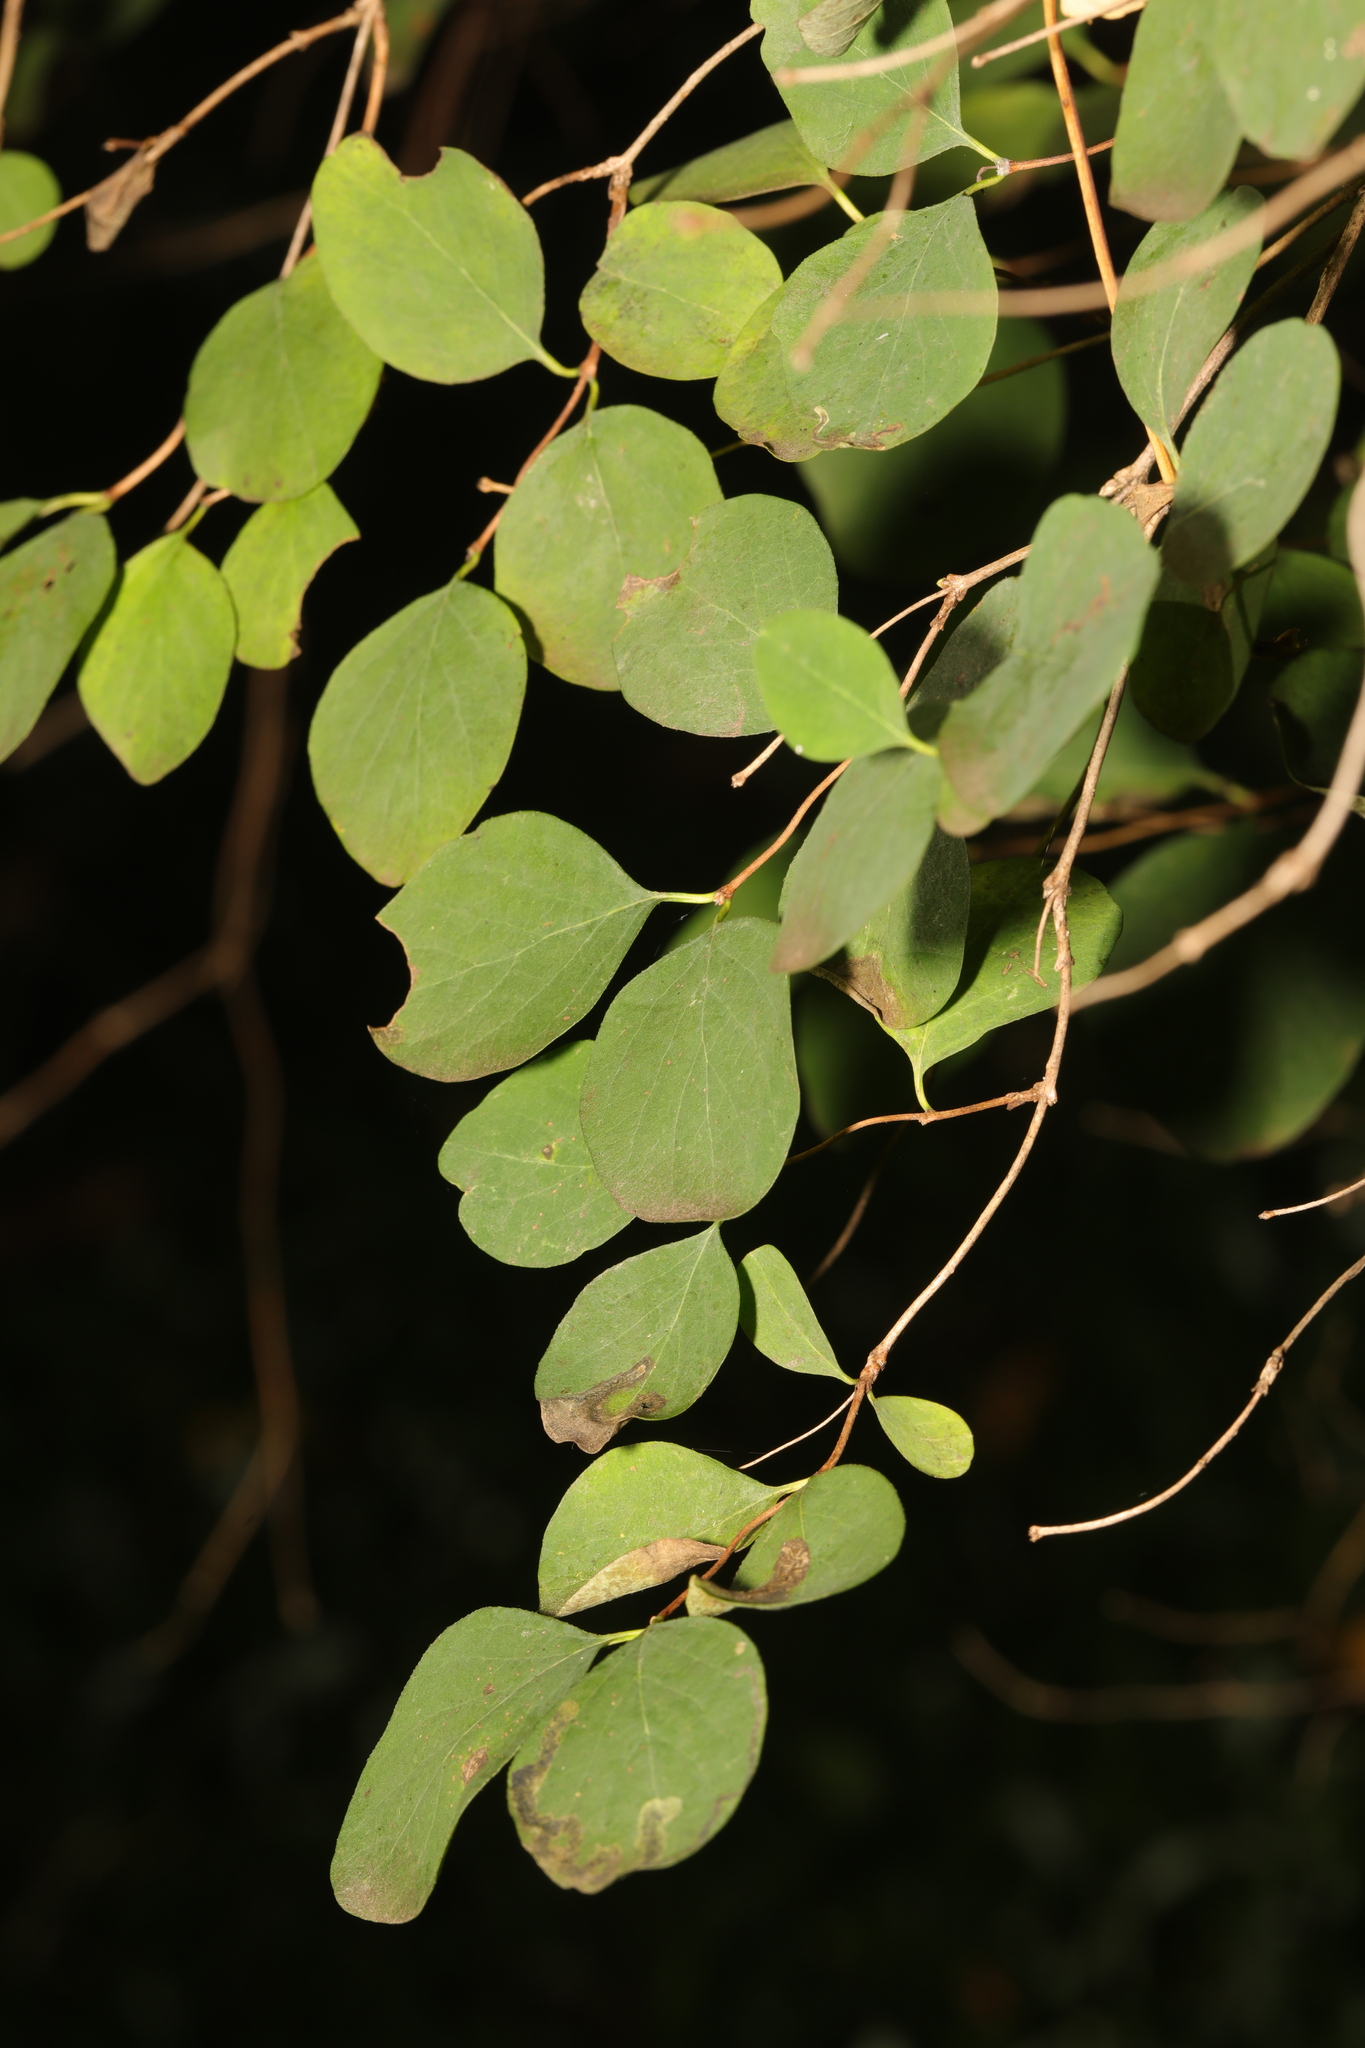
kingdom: Plantae
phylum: Tracheophyta
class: Magnoliopsida
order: Dipsacales
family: Caprifoliaceae
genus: Symphoricarpos
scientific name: Symphoricarpos albus
